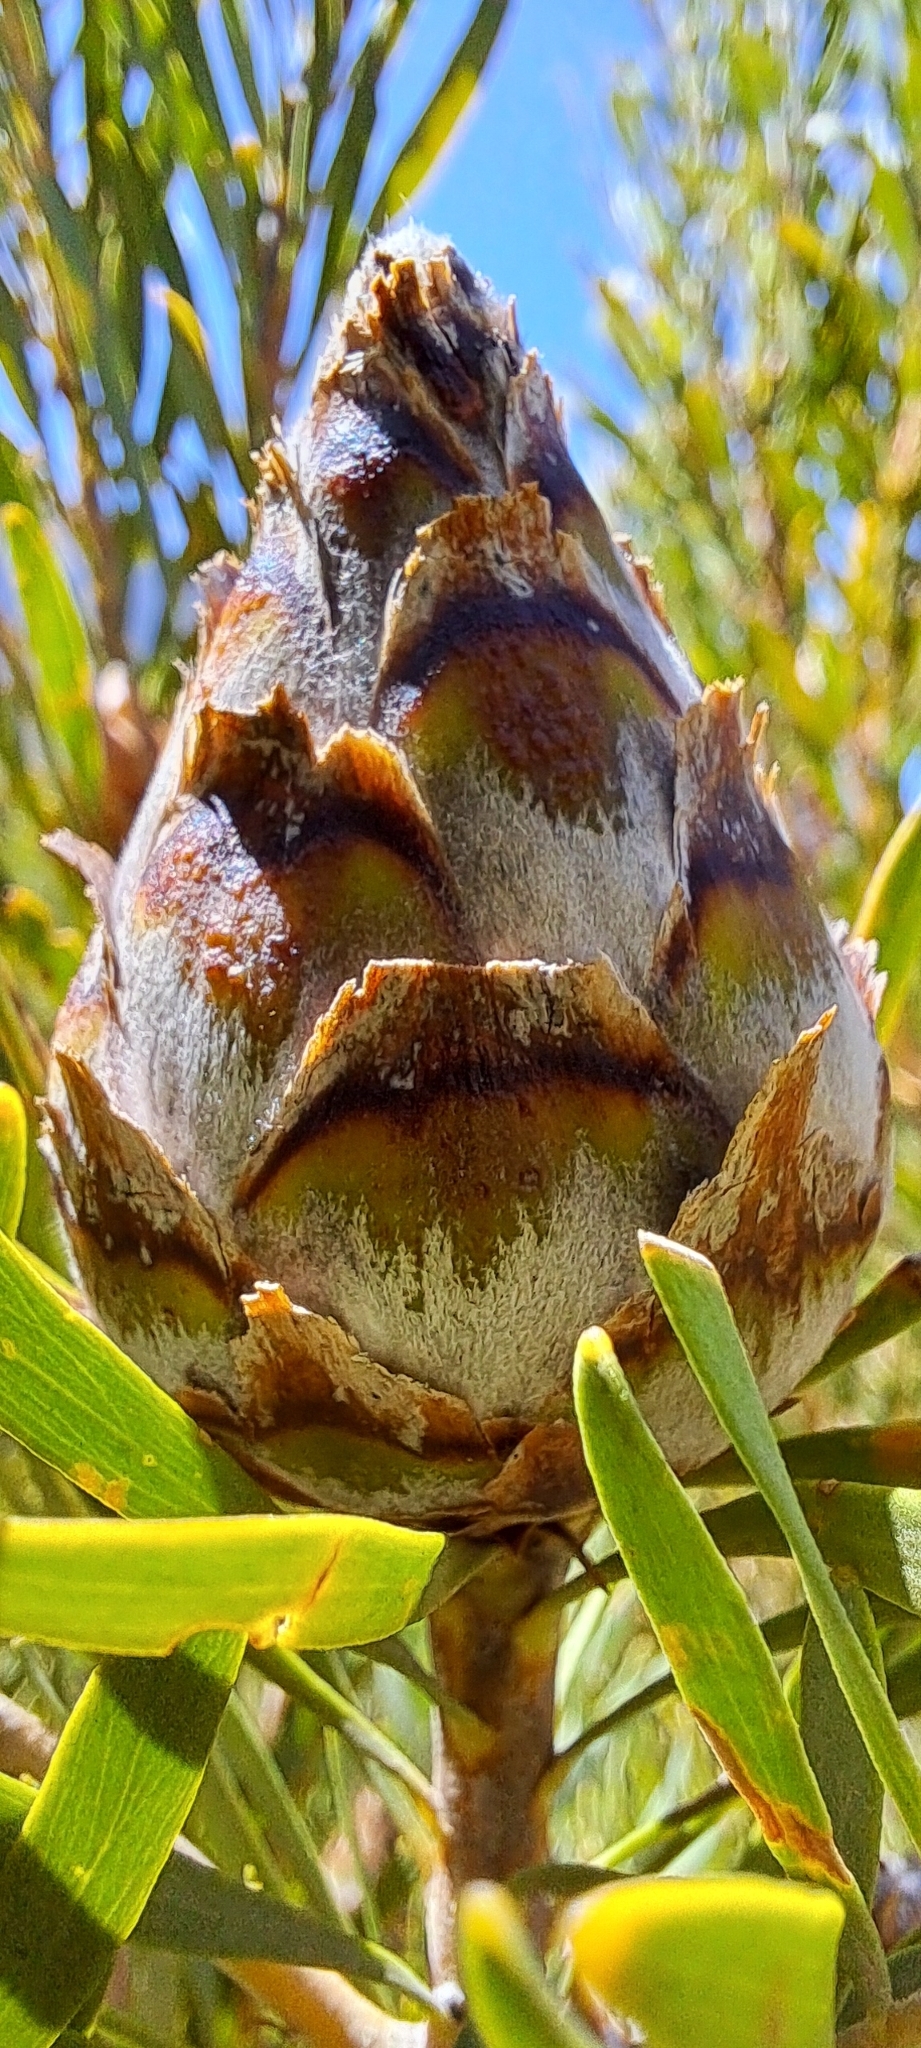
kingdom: Plantae
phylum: Tracheophyta
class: Magnoliopsida
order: Proteales
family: Proteaceae
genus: Leucadendron
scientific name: Leucadendron rubrum
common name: Spinning top
